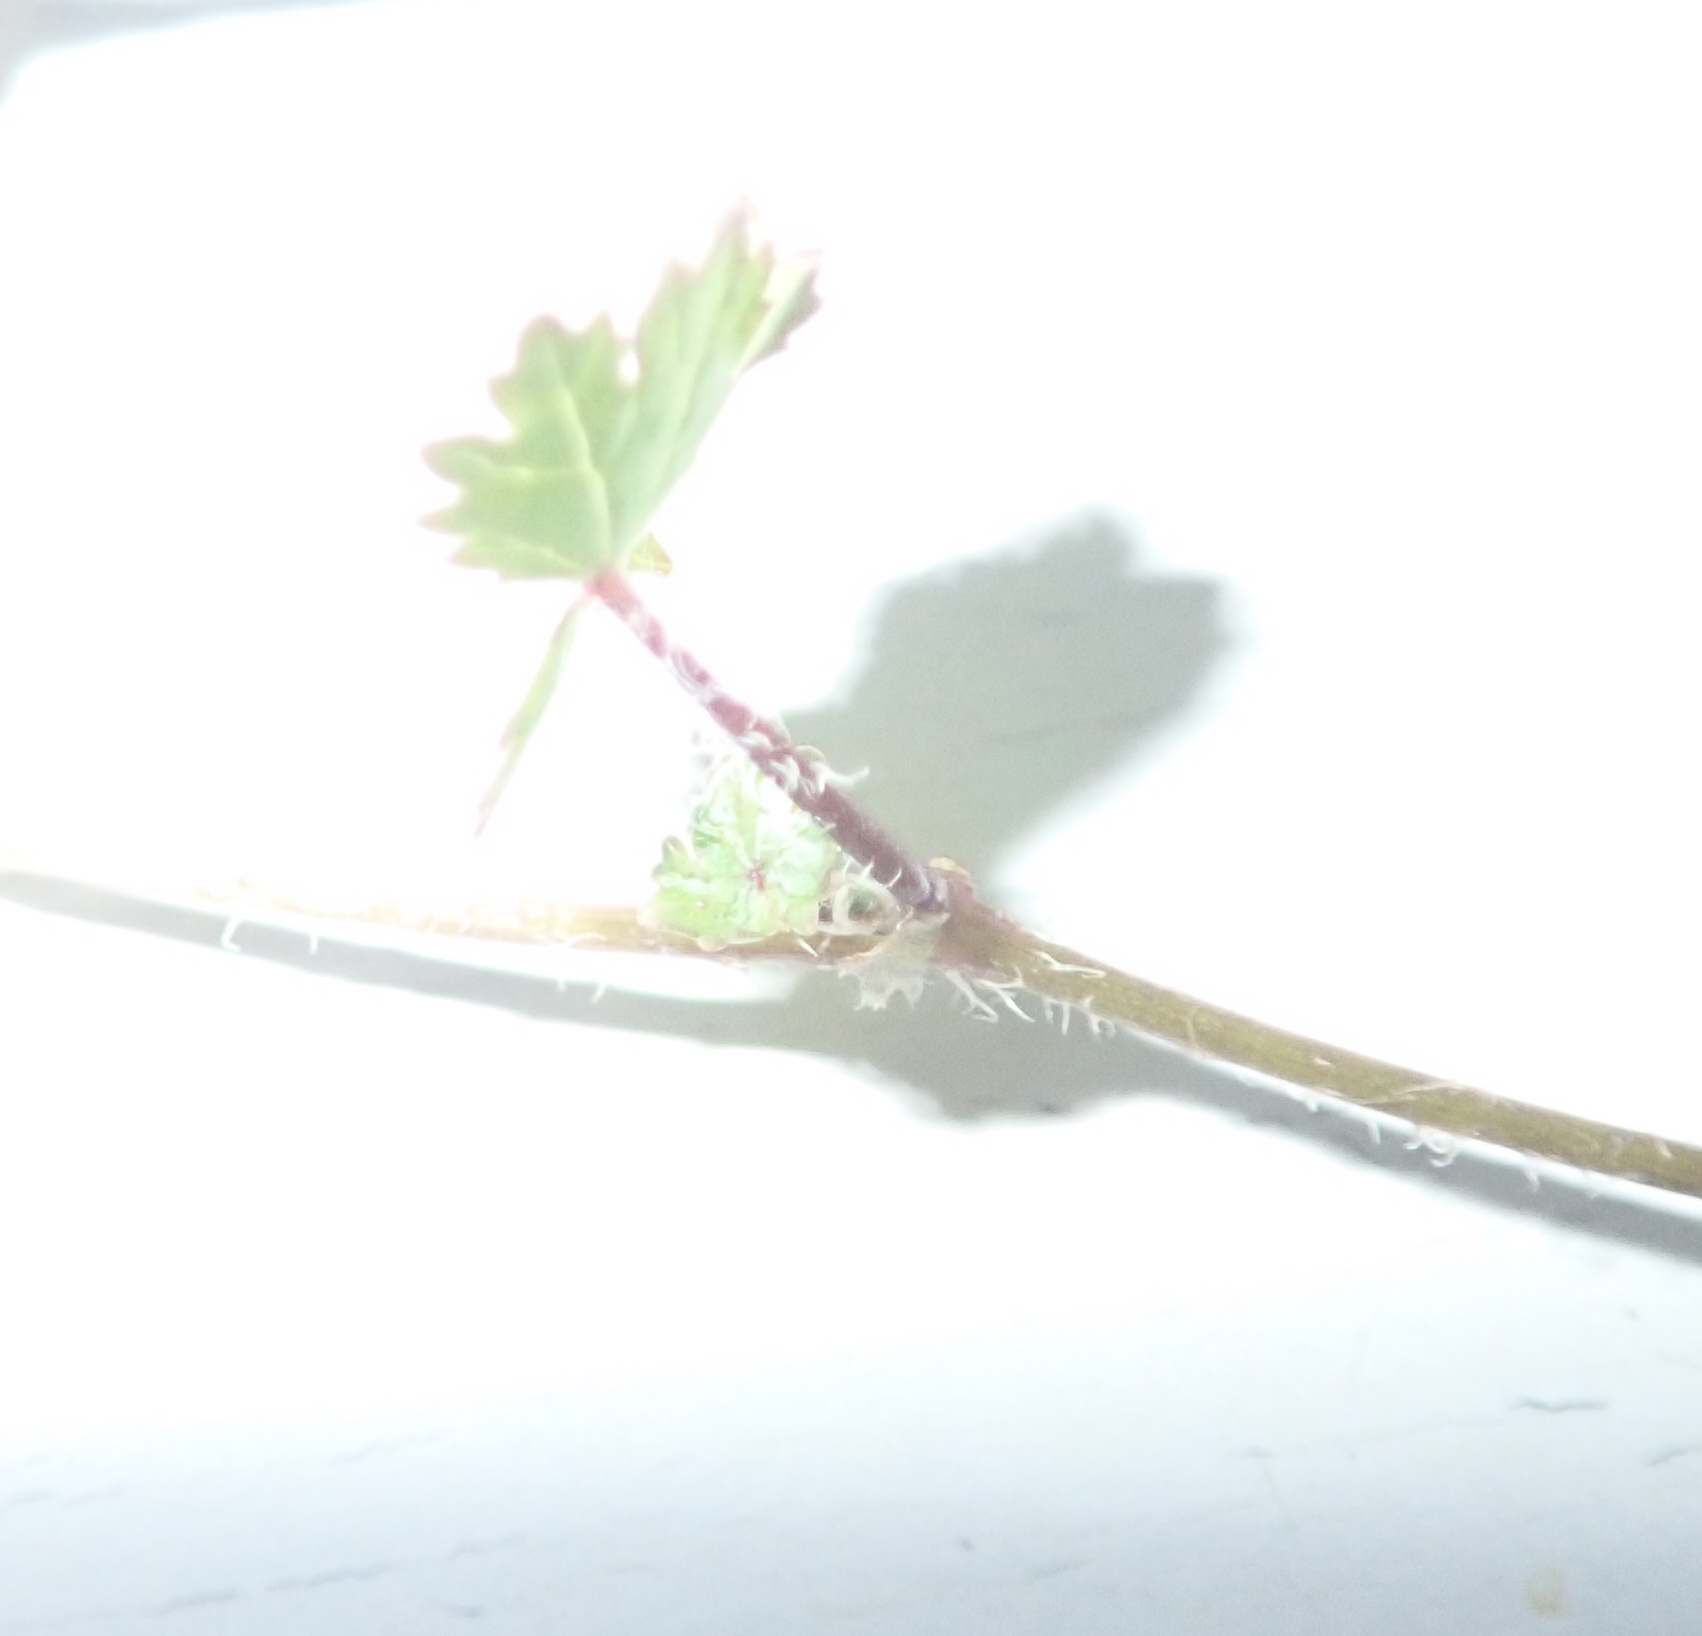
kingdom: Plantae
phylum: Tracheophyta
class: Magnoliopsida
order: Apiales
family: Araliaceae
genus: Hydrocotyle
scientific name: Hydrocotyle moschata
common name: Hairy pennywort
